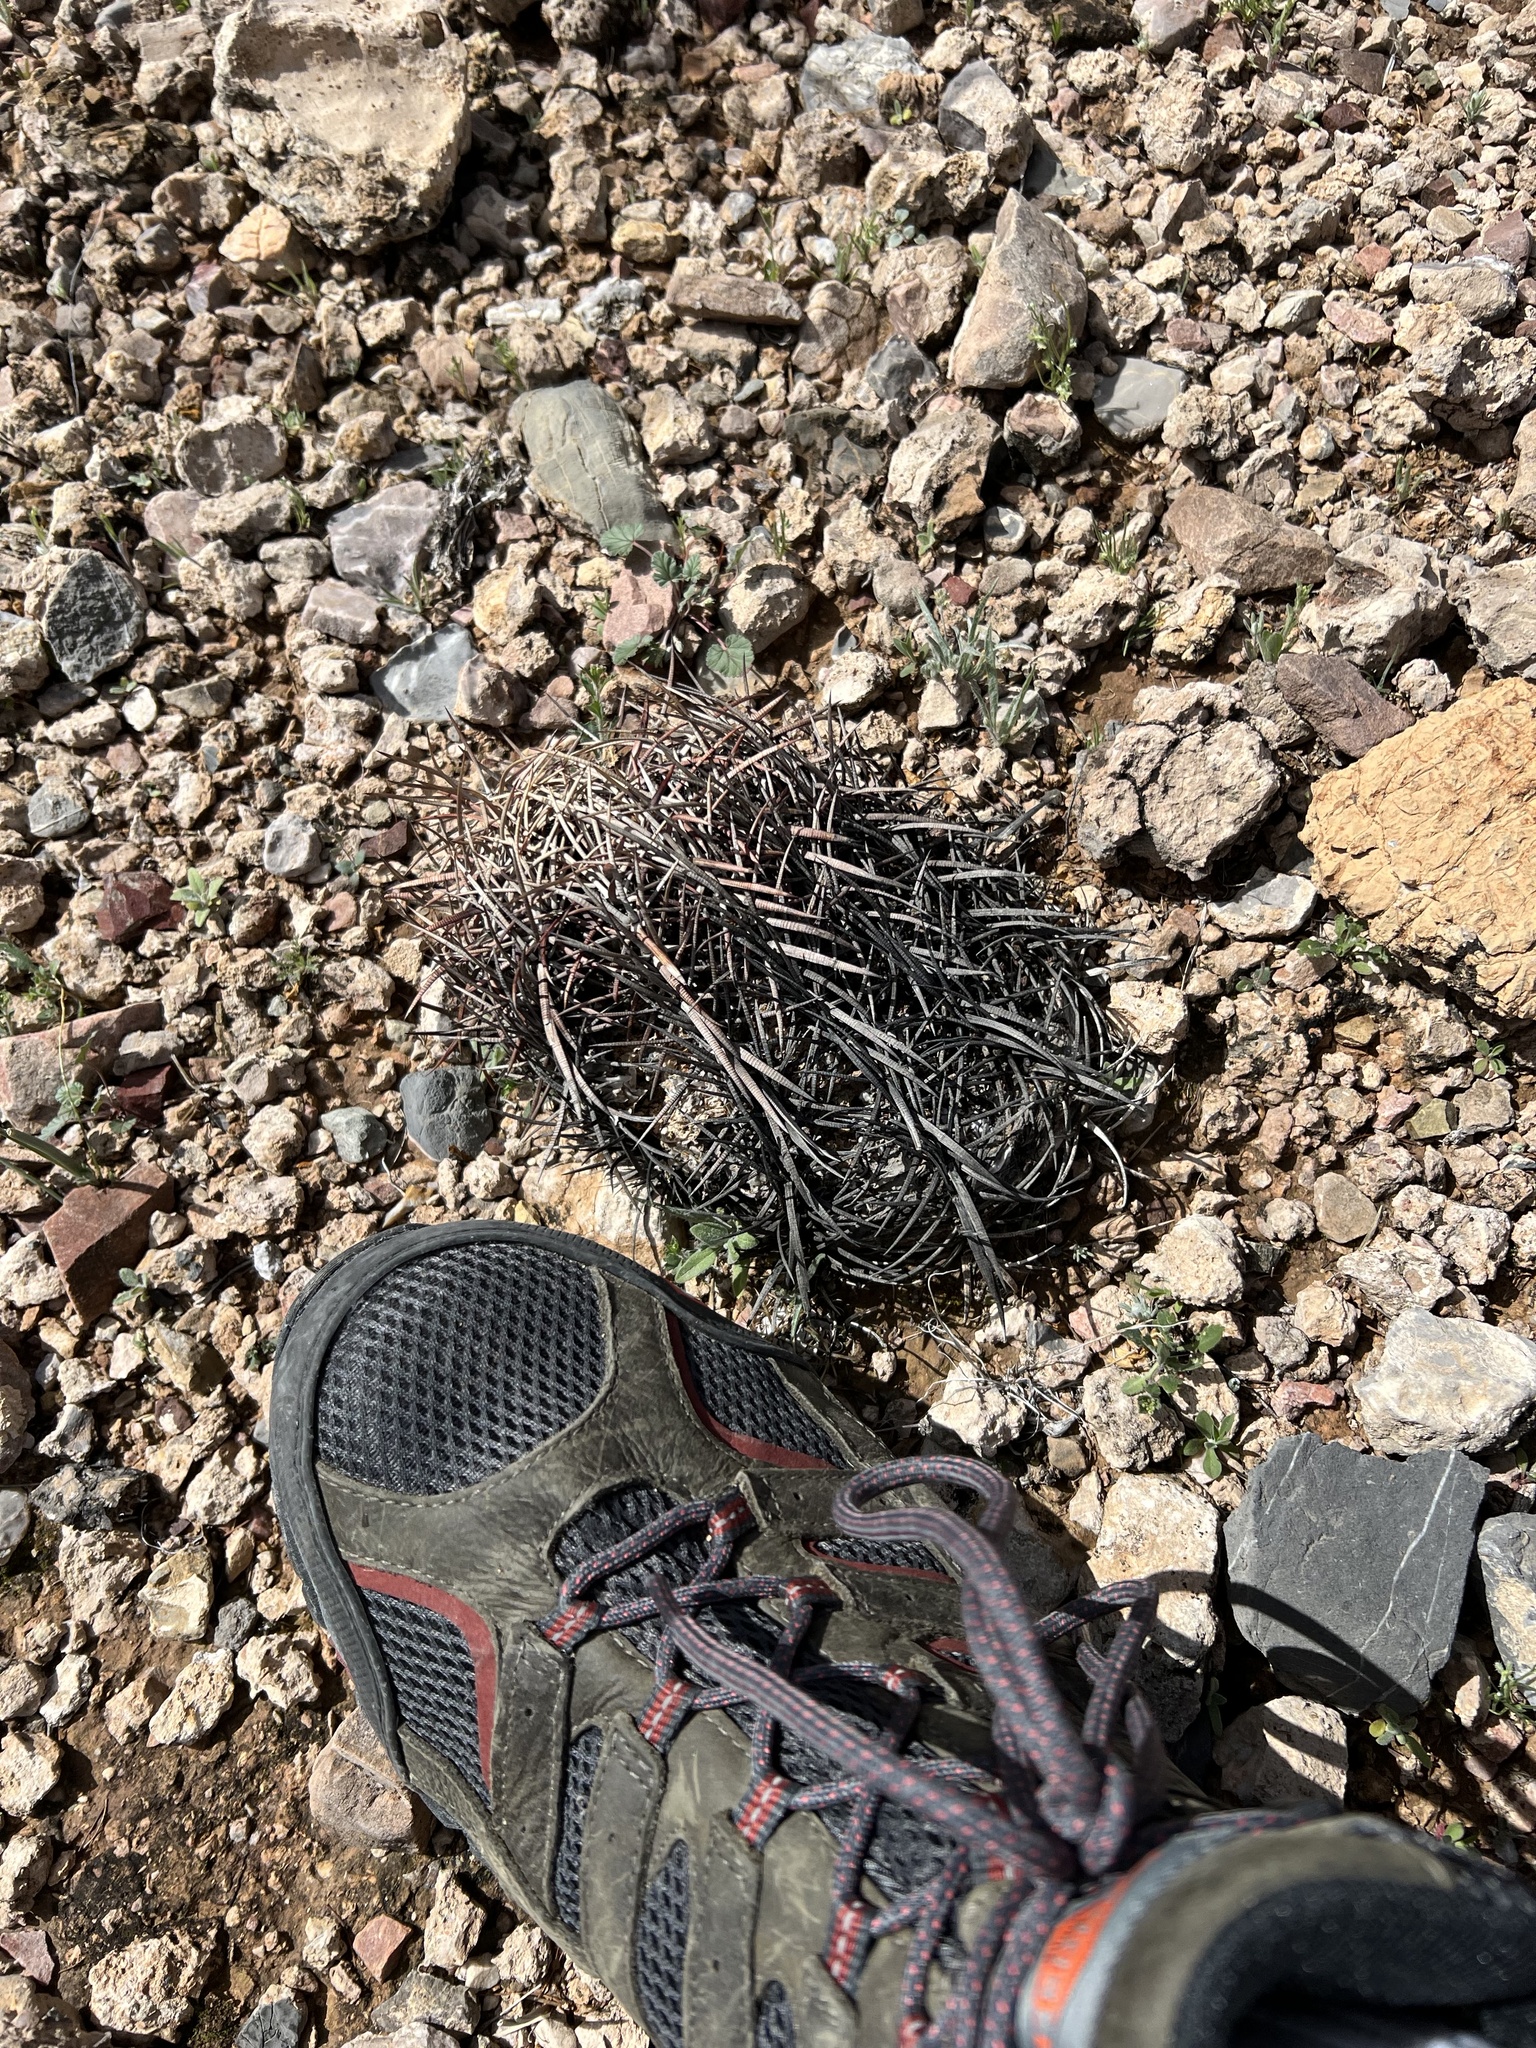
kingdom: Plantae
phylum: Tracheophyta
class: Magnoliopsida
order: Caryophyllales
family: Cactaceae
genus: Echinocactus
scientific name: Echinocactus horizonthalonius
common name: Devilshead
